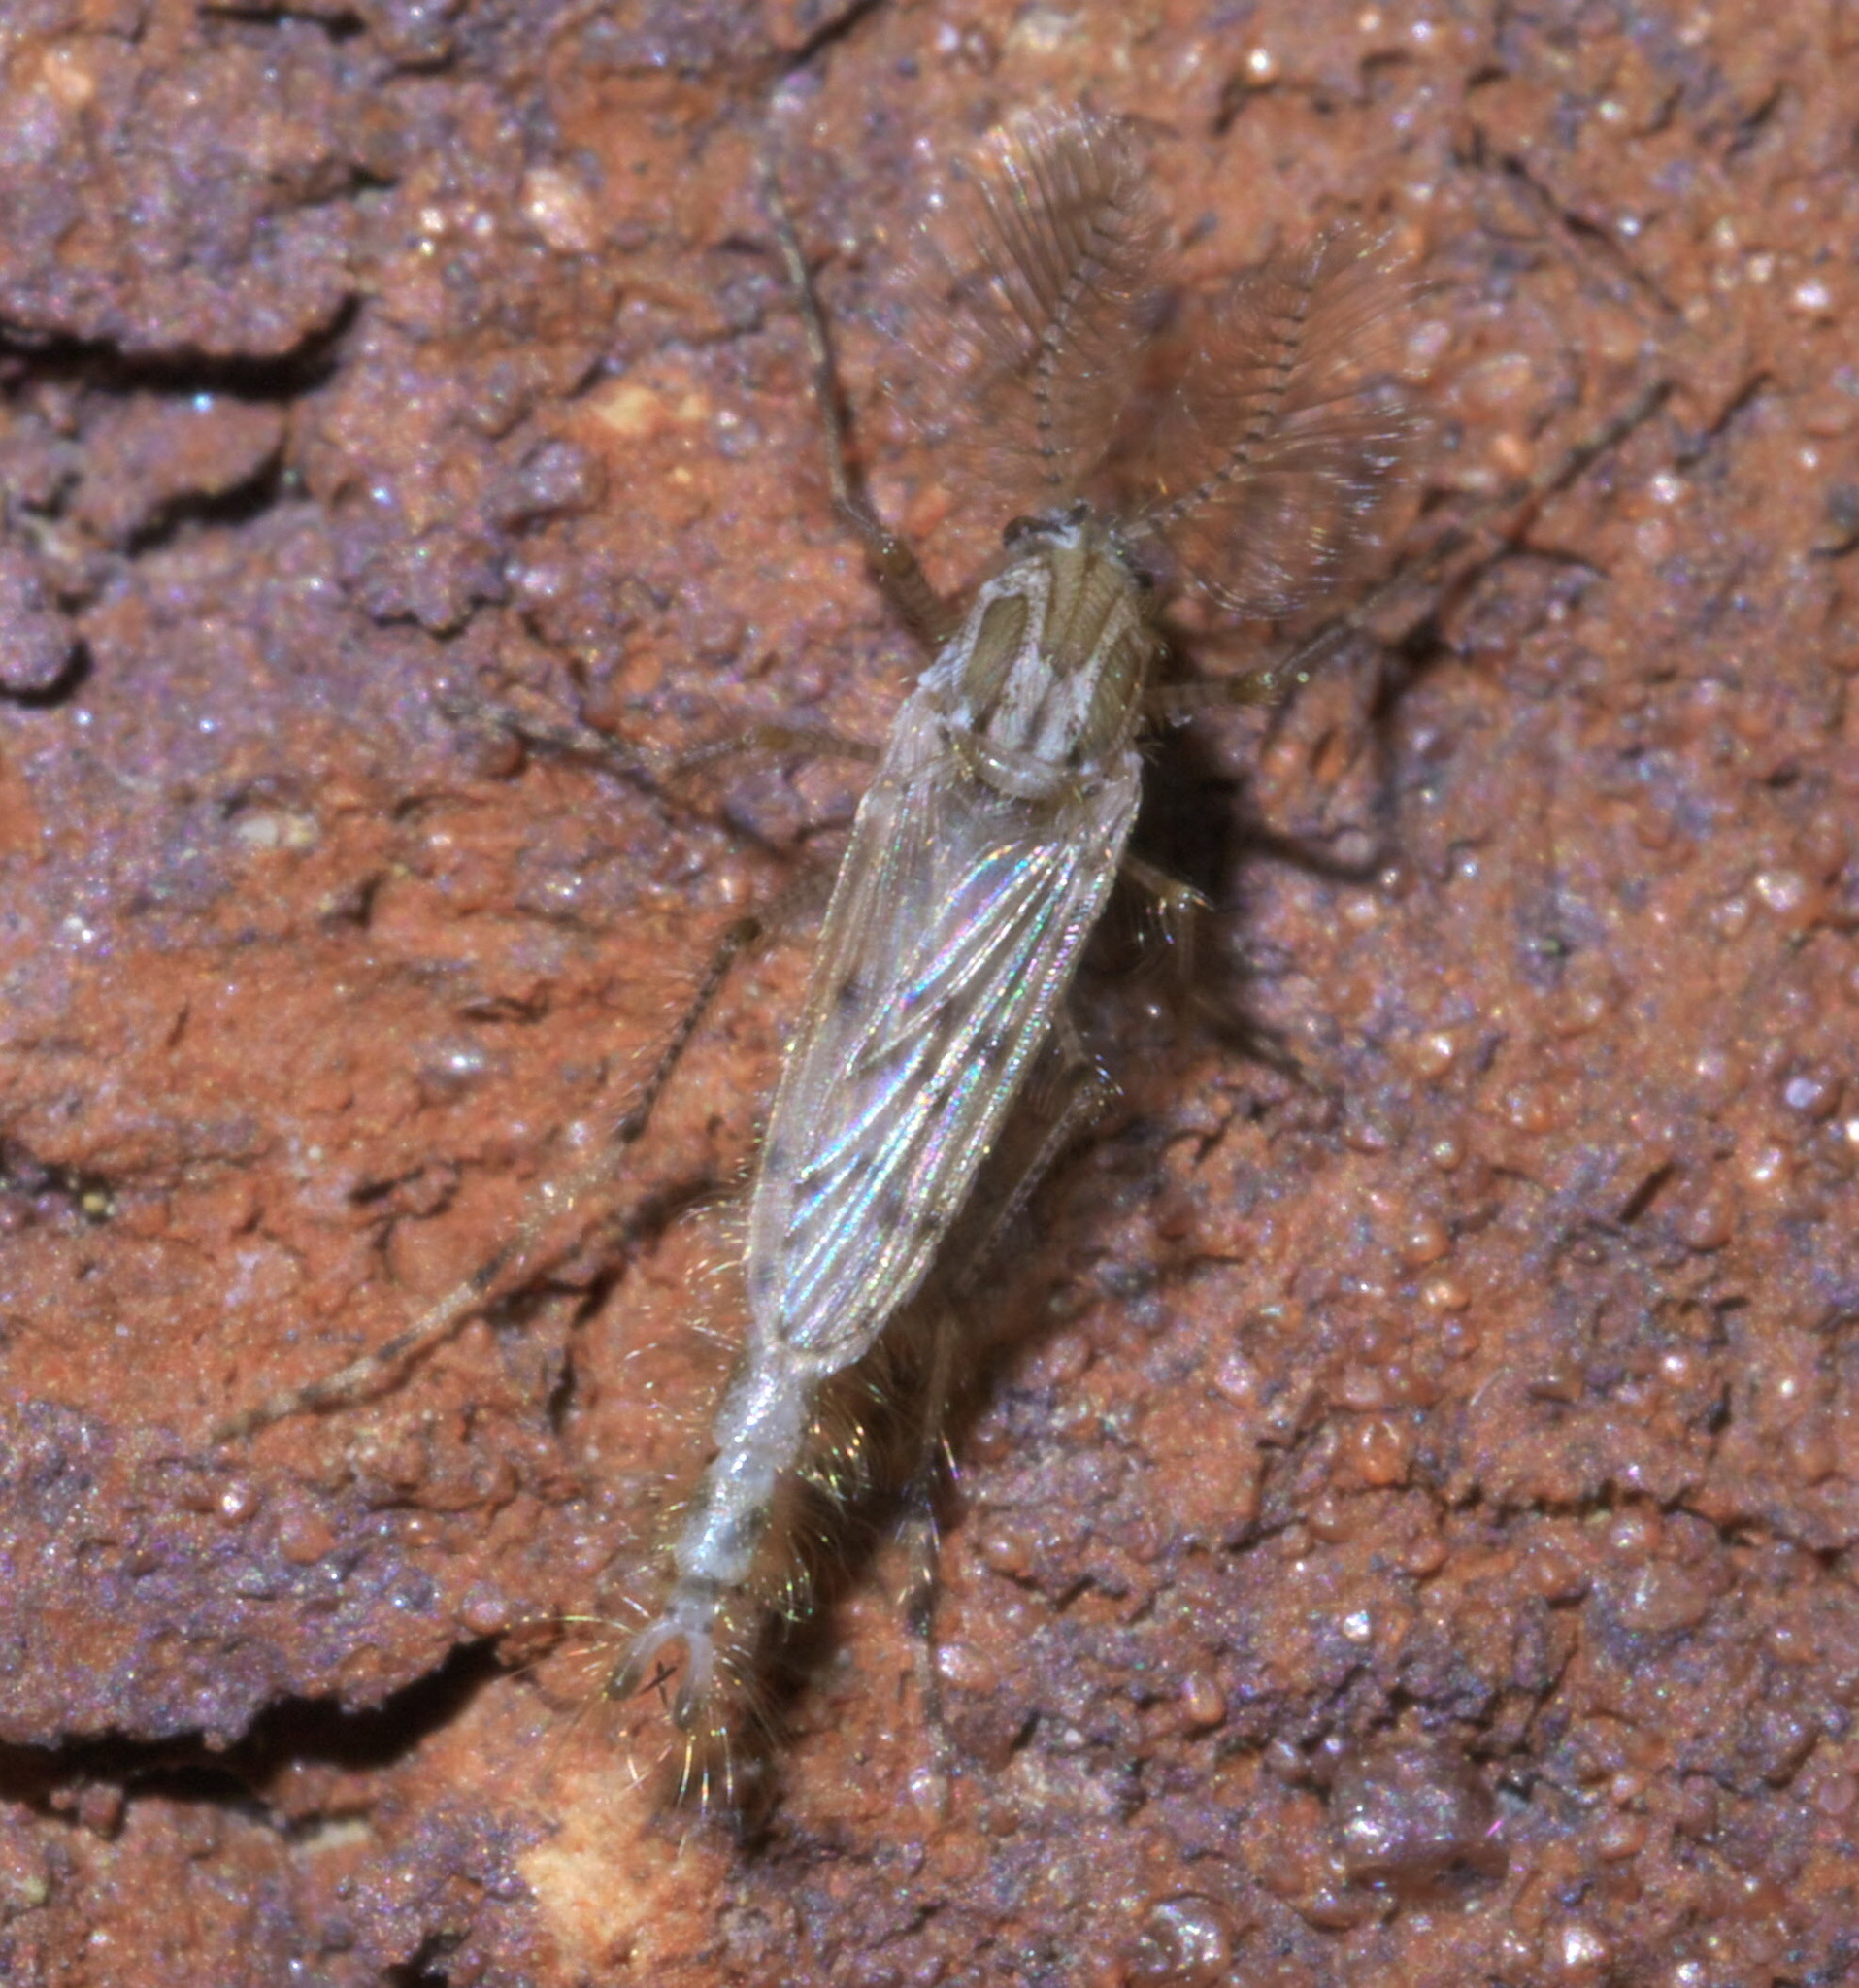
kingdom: Animalia
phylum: Arthropoda
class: Insecta
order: Diptera
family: Chaoboridae
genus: Chaoborus
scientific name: Chaoborus punctipennis
